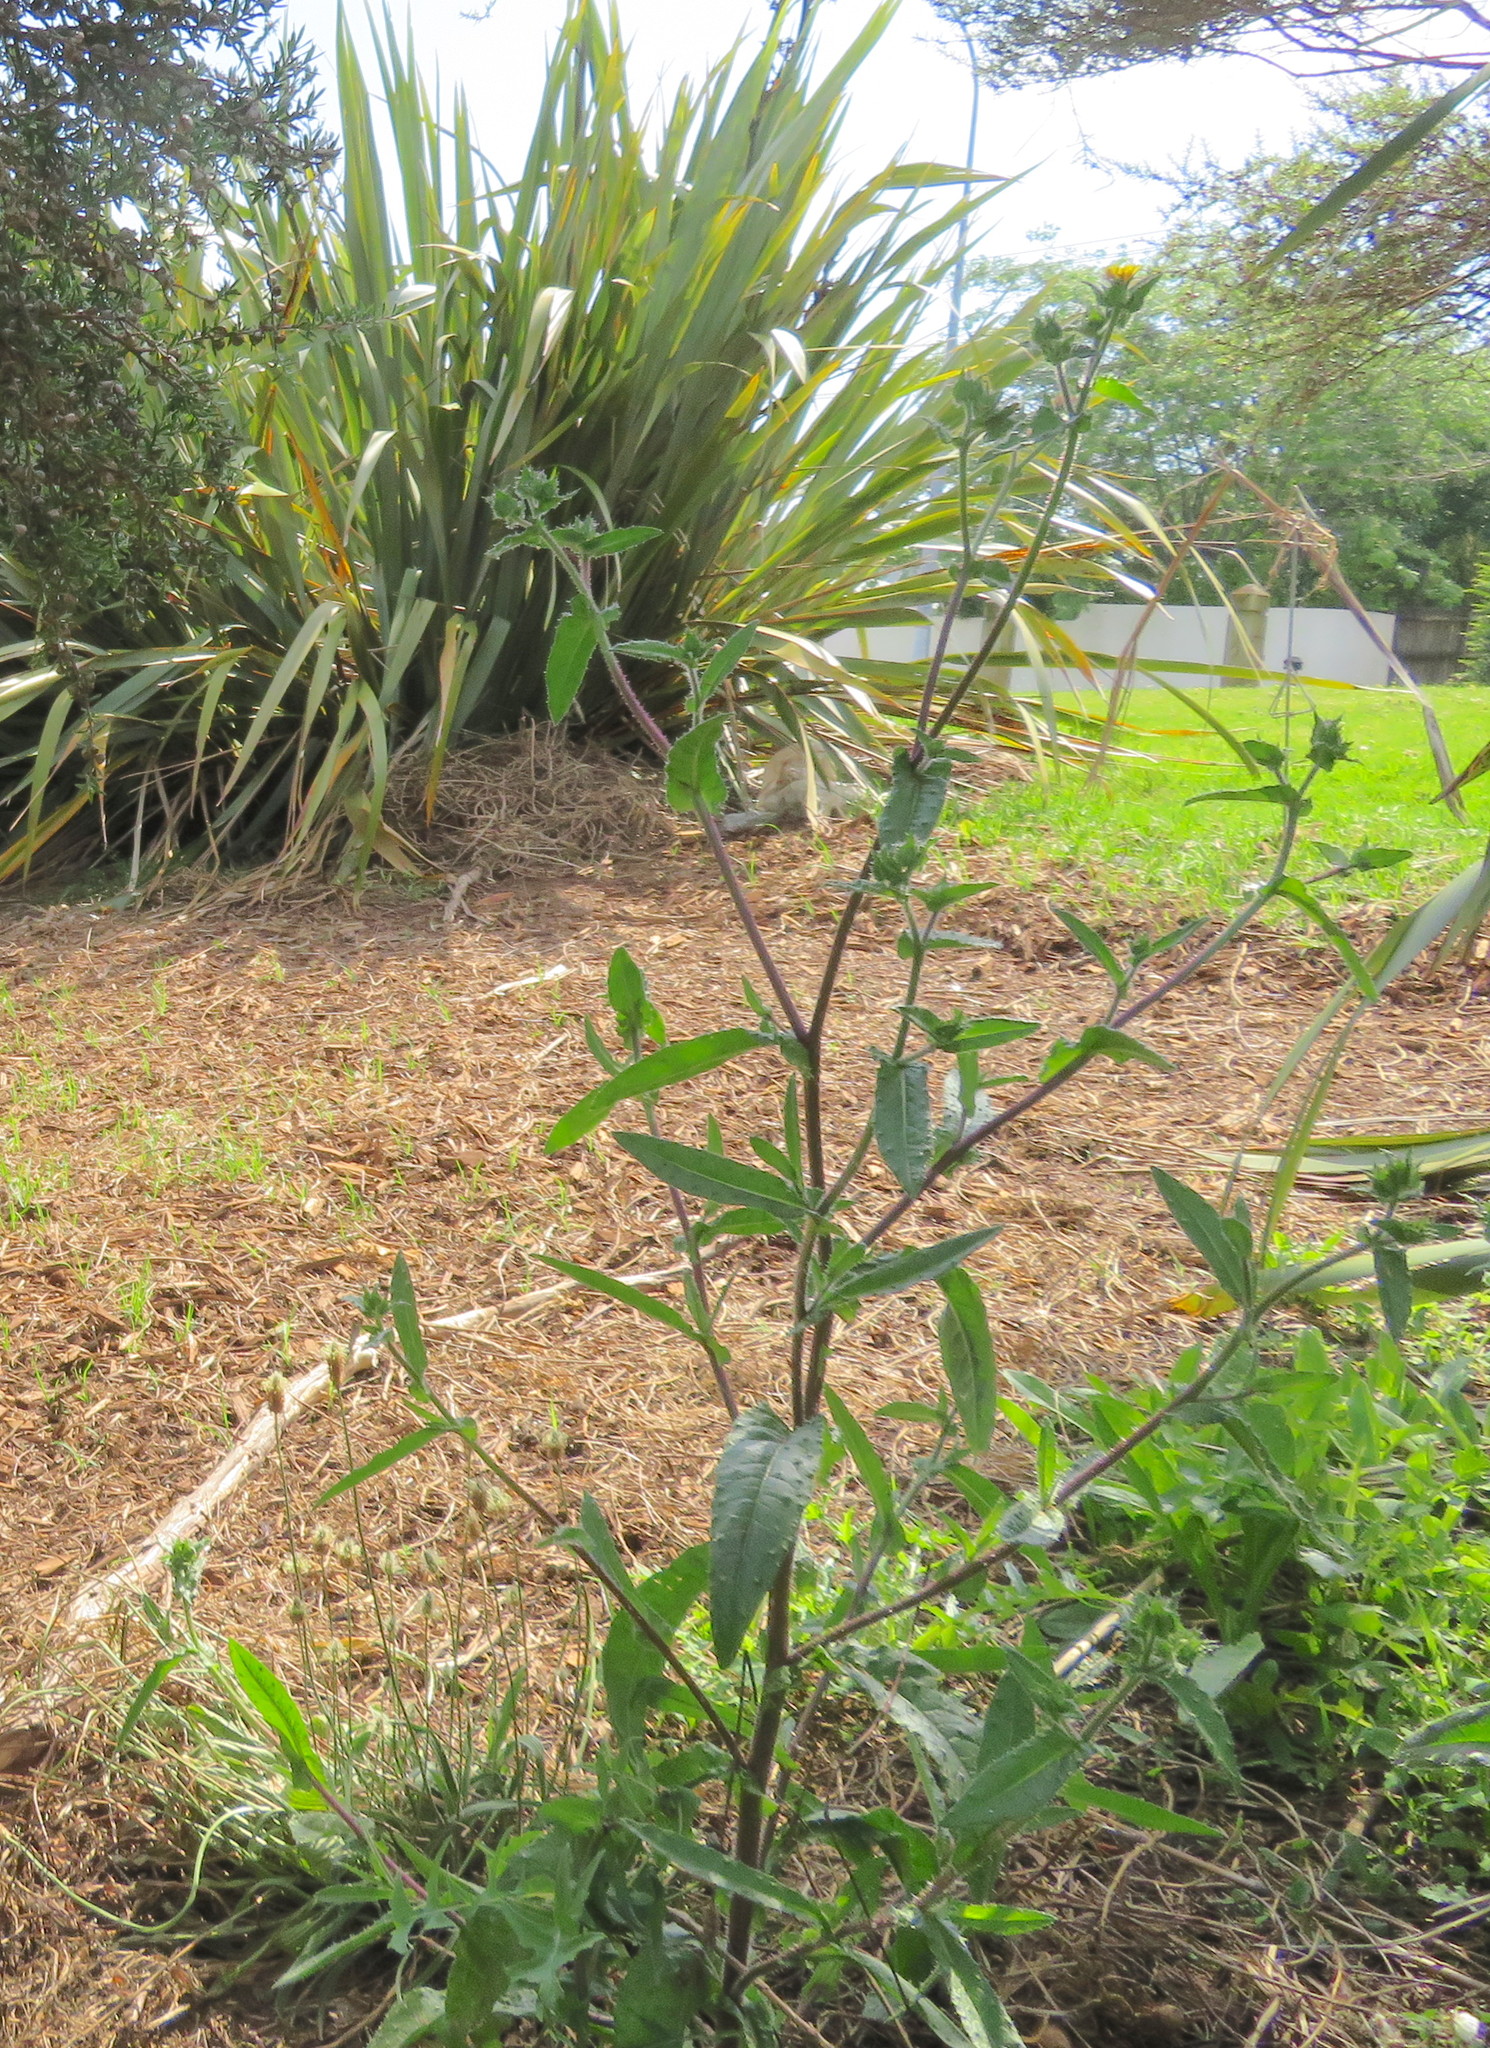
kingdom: Plantae
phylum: Tracheophyta
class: Magnoliopsida
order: Asterales
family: Asteraceae
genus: Helminthotheca
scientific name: Helminthotheca echioides
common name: Ox-tongue
